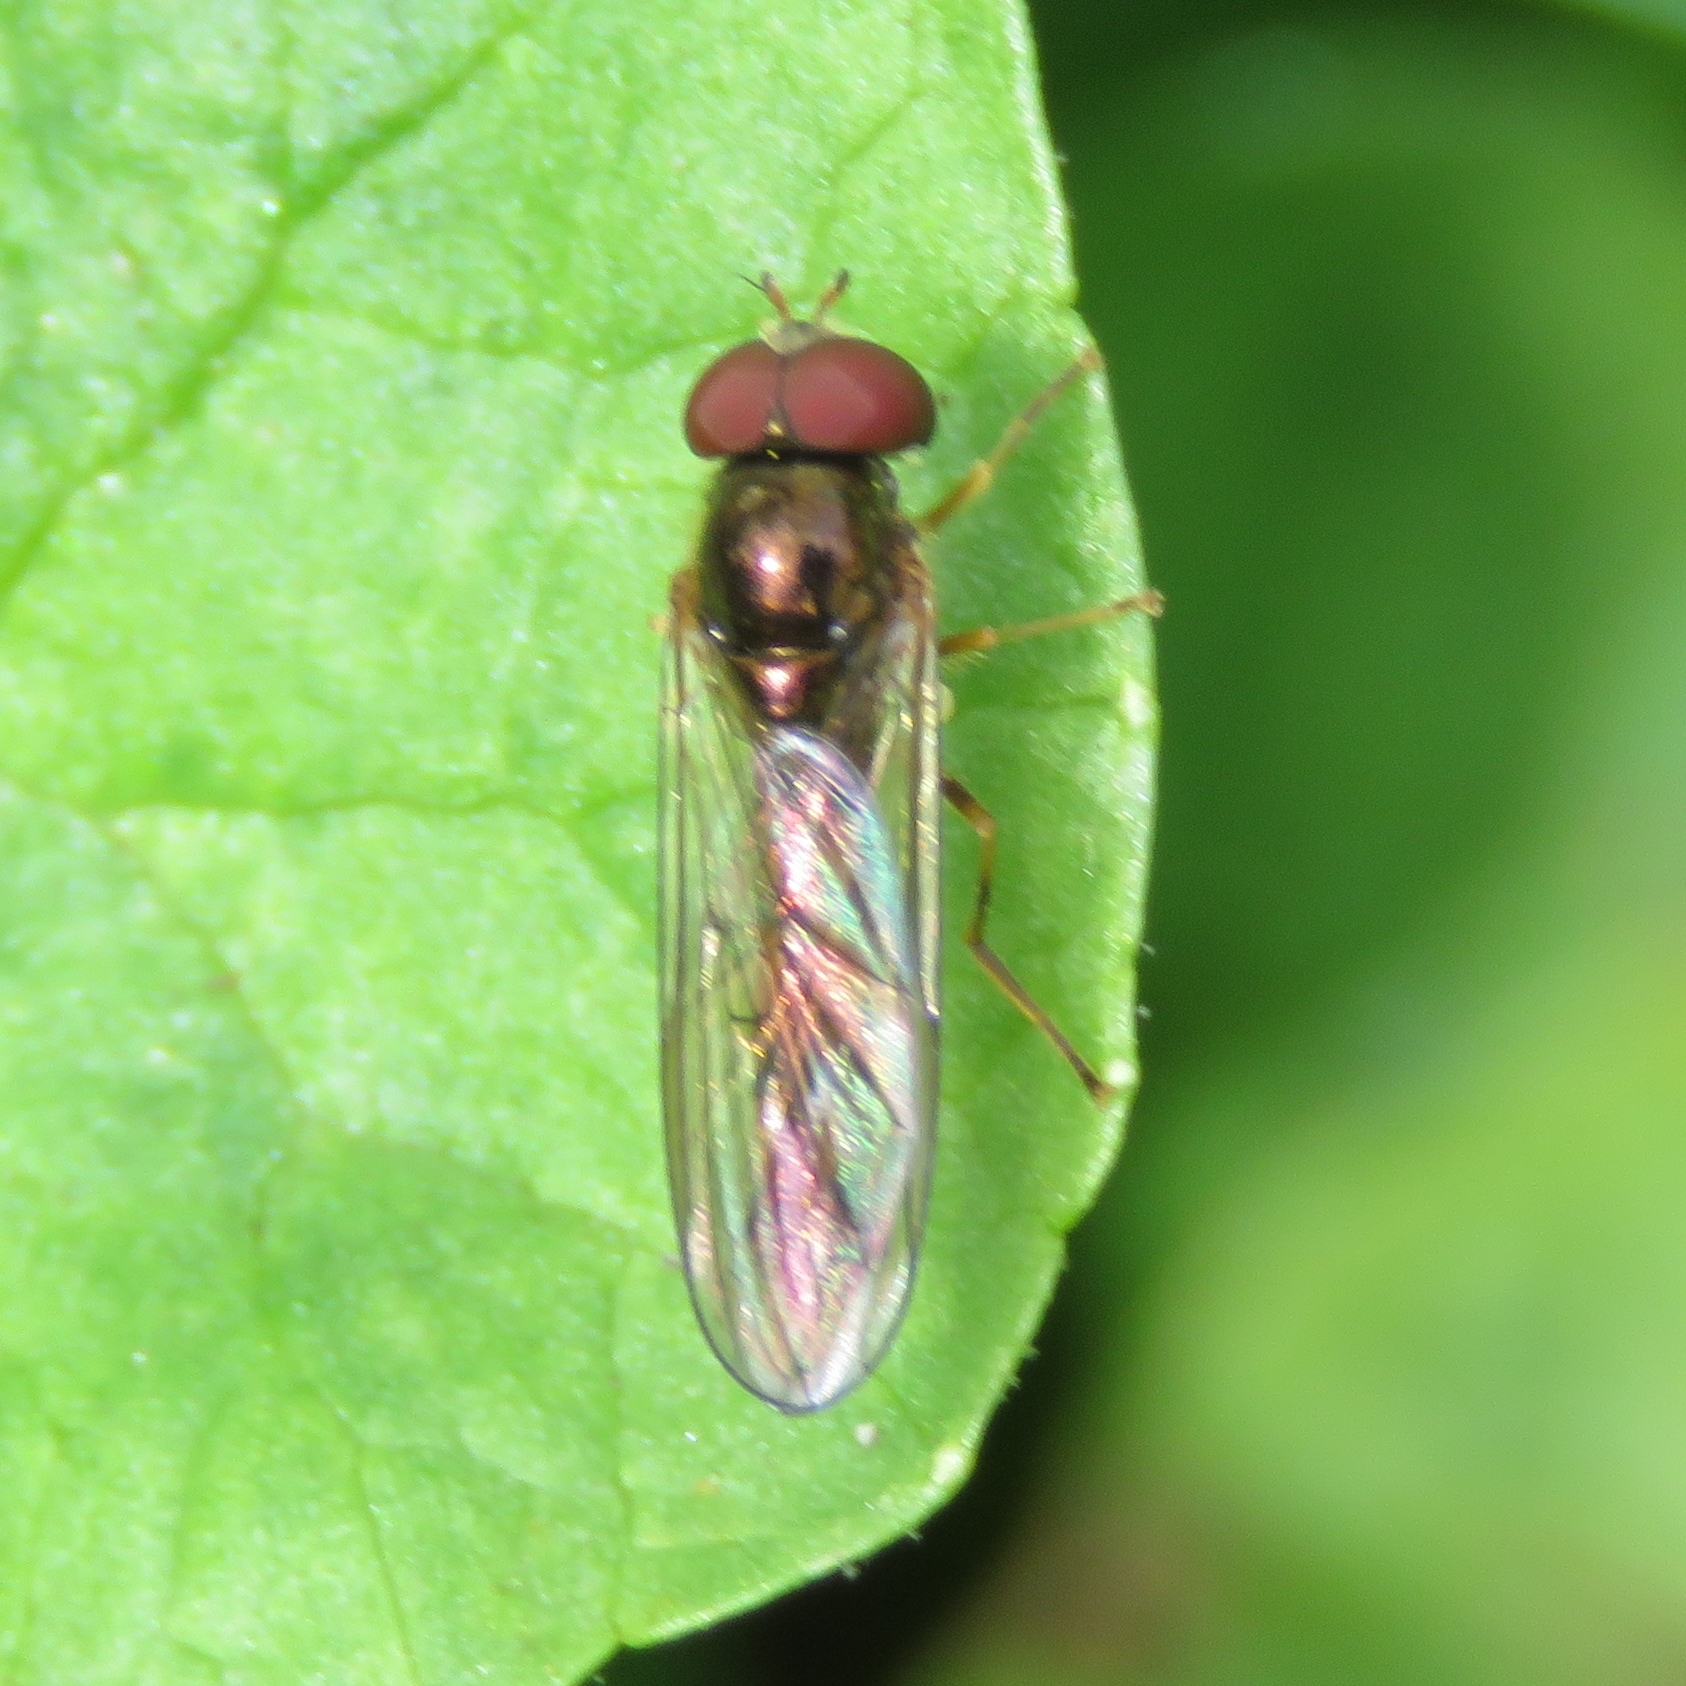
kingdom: Animalia
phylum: Arthropoda
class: Insecta
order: Diptera
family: Syrphidae
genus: Melanostoma
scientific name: Melanostoma scalare
